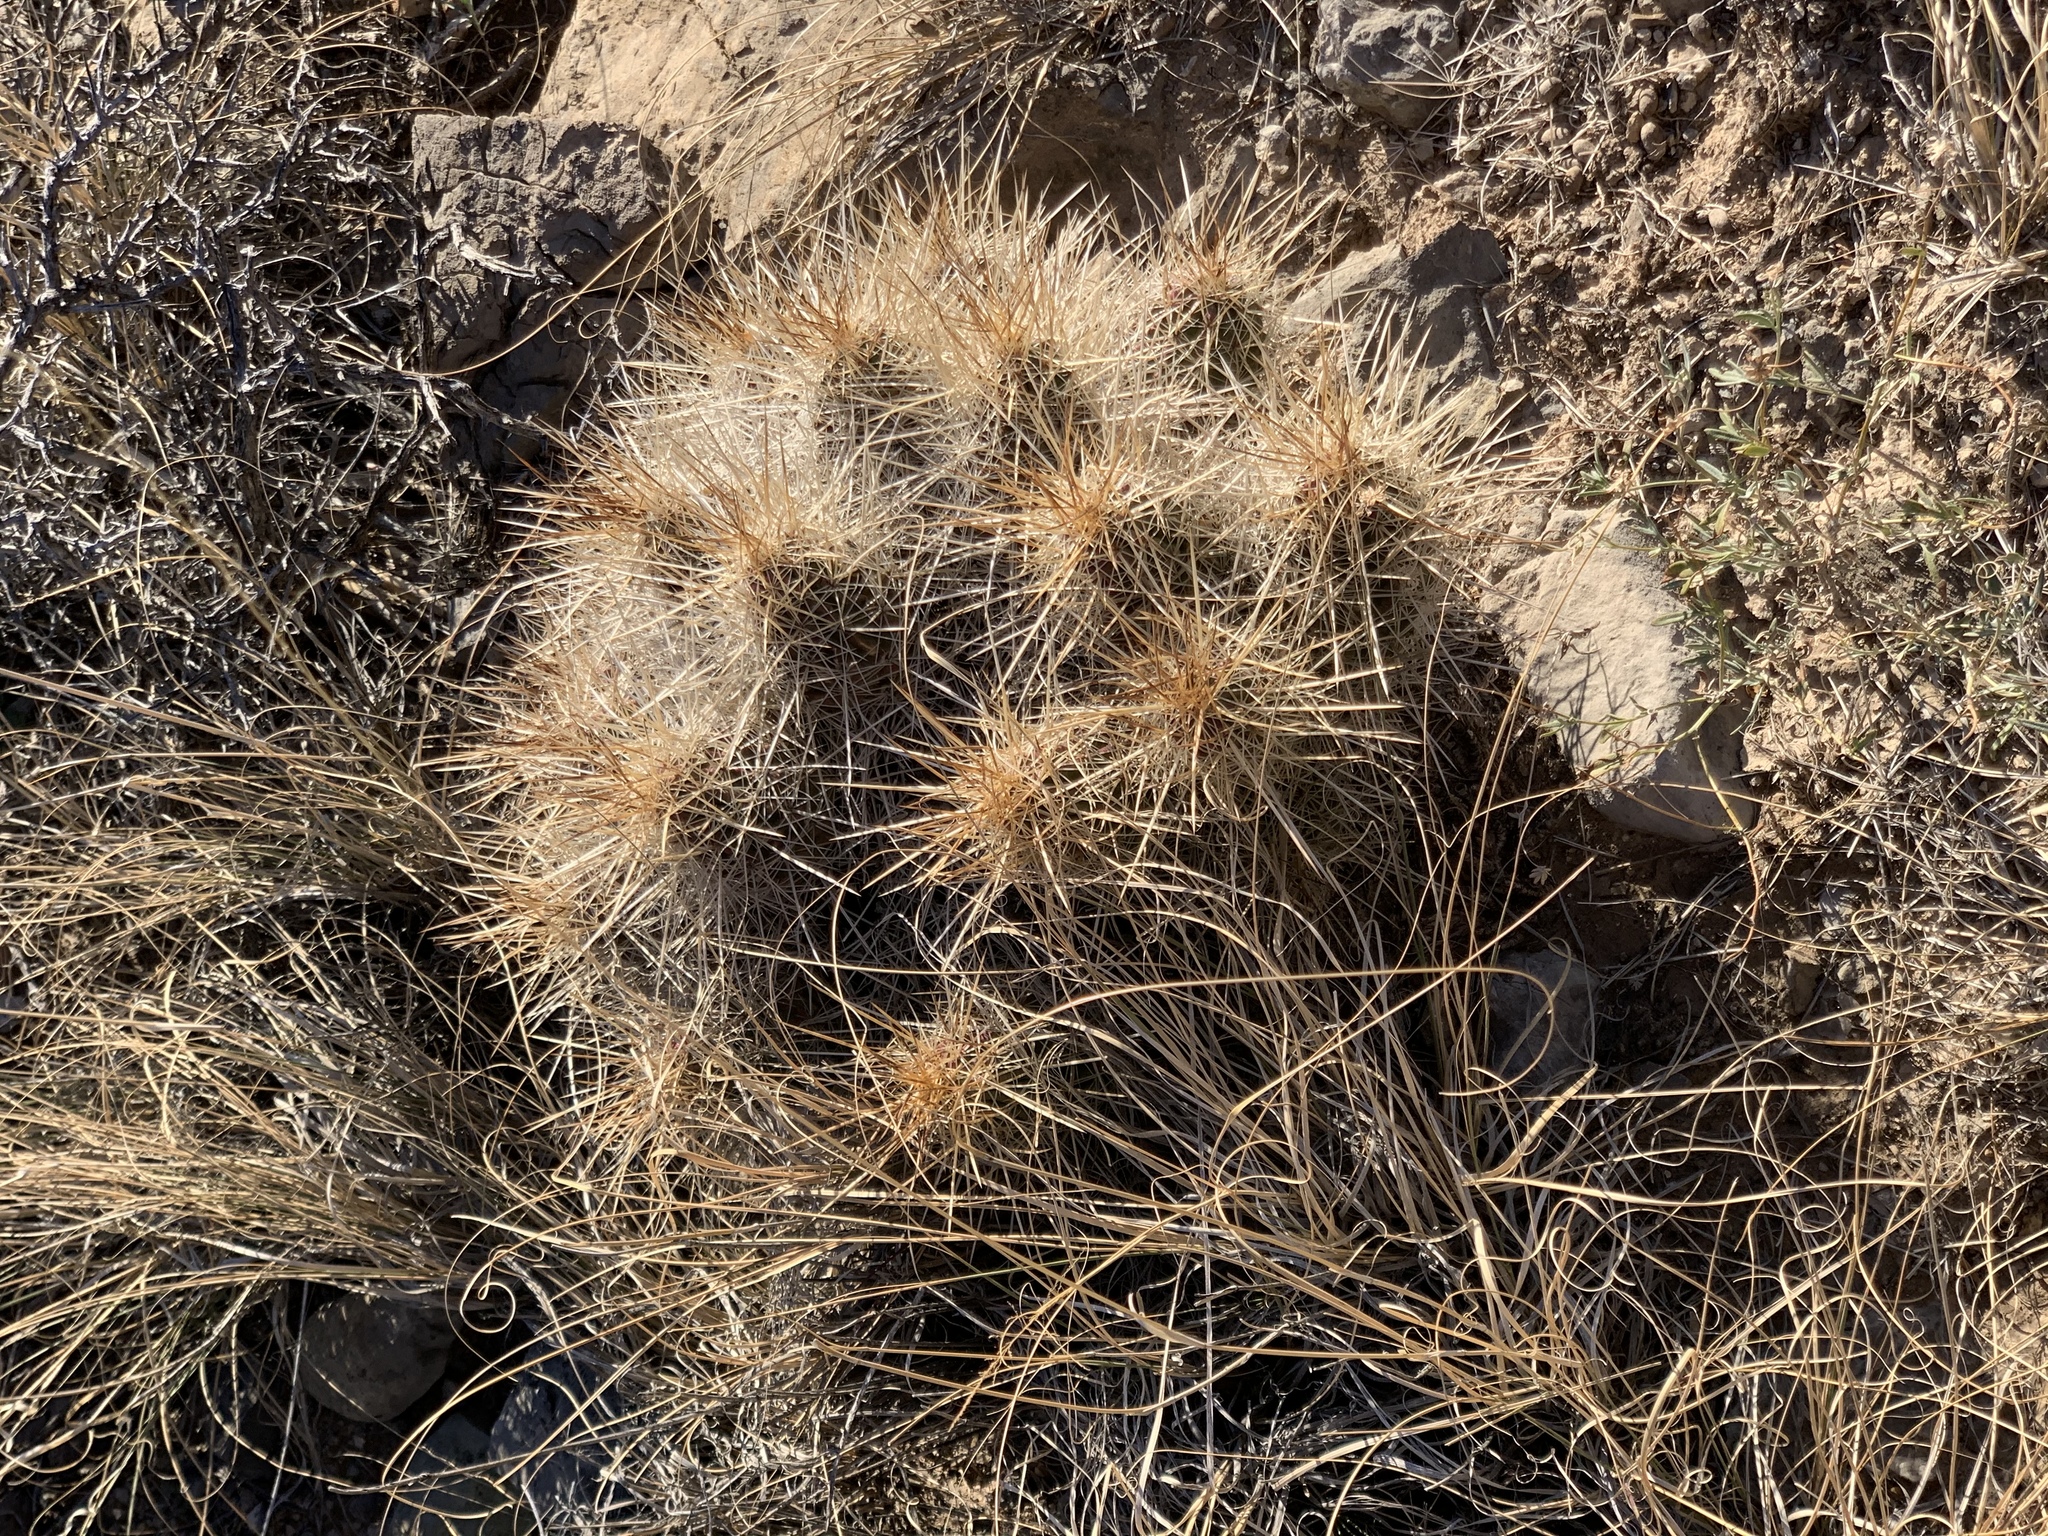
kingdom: Plantae
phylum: Tracheophyta
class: Magnoliopsida
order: Caryophyllales
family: Cactaceae
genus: Echinocereus
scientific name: Echinocereus stramineus
